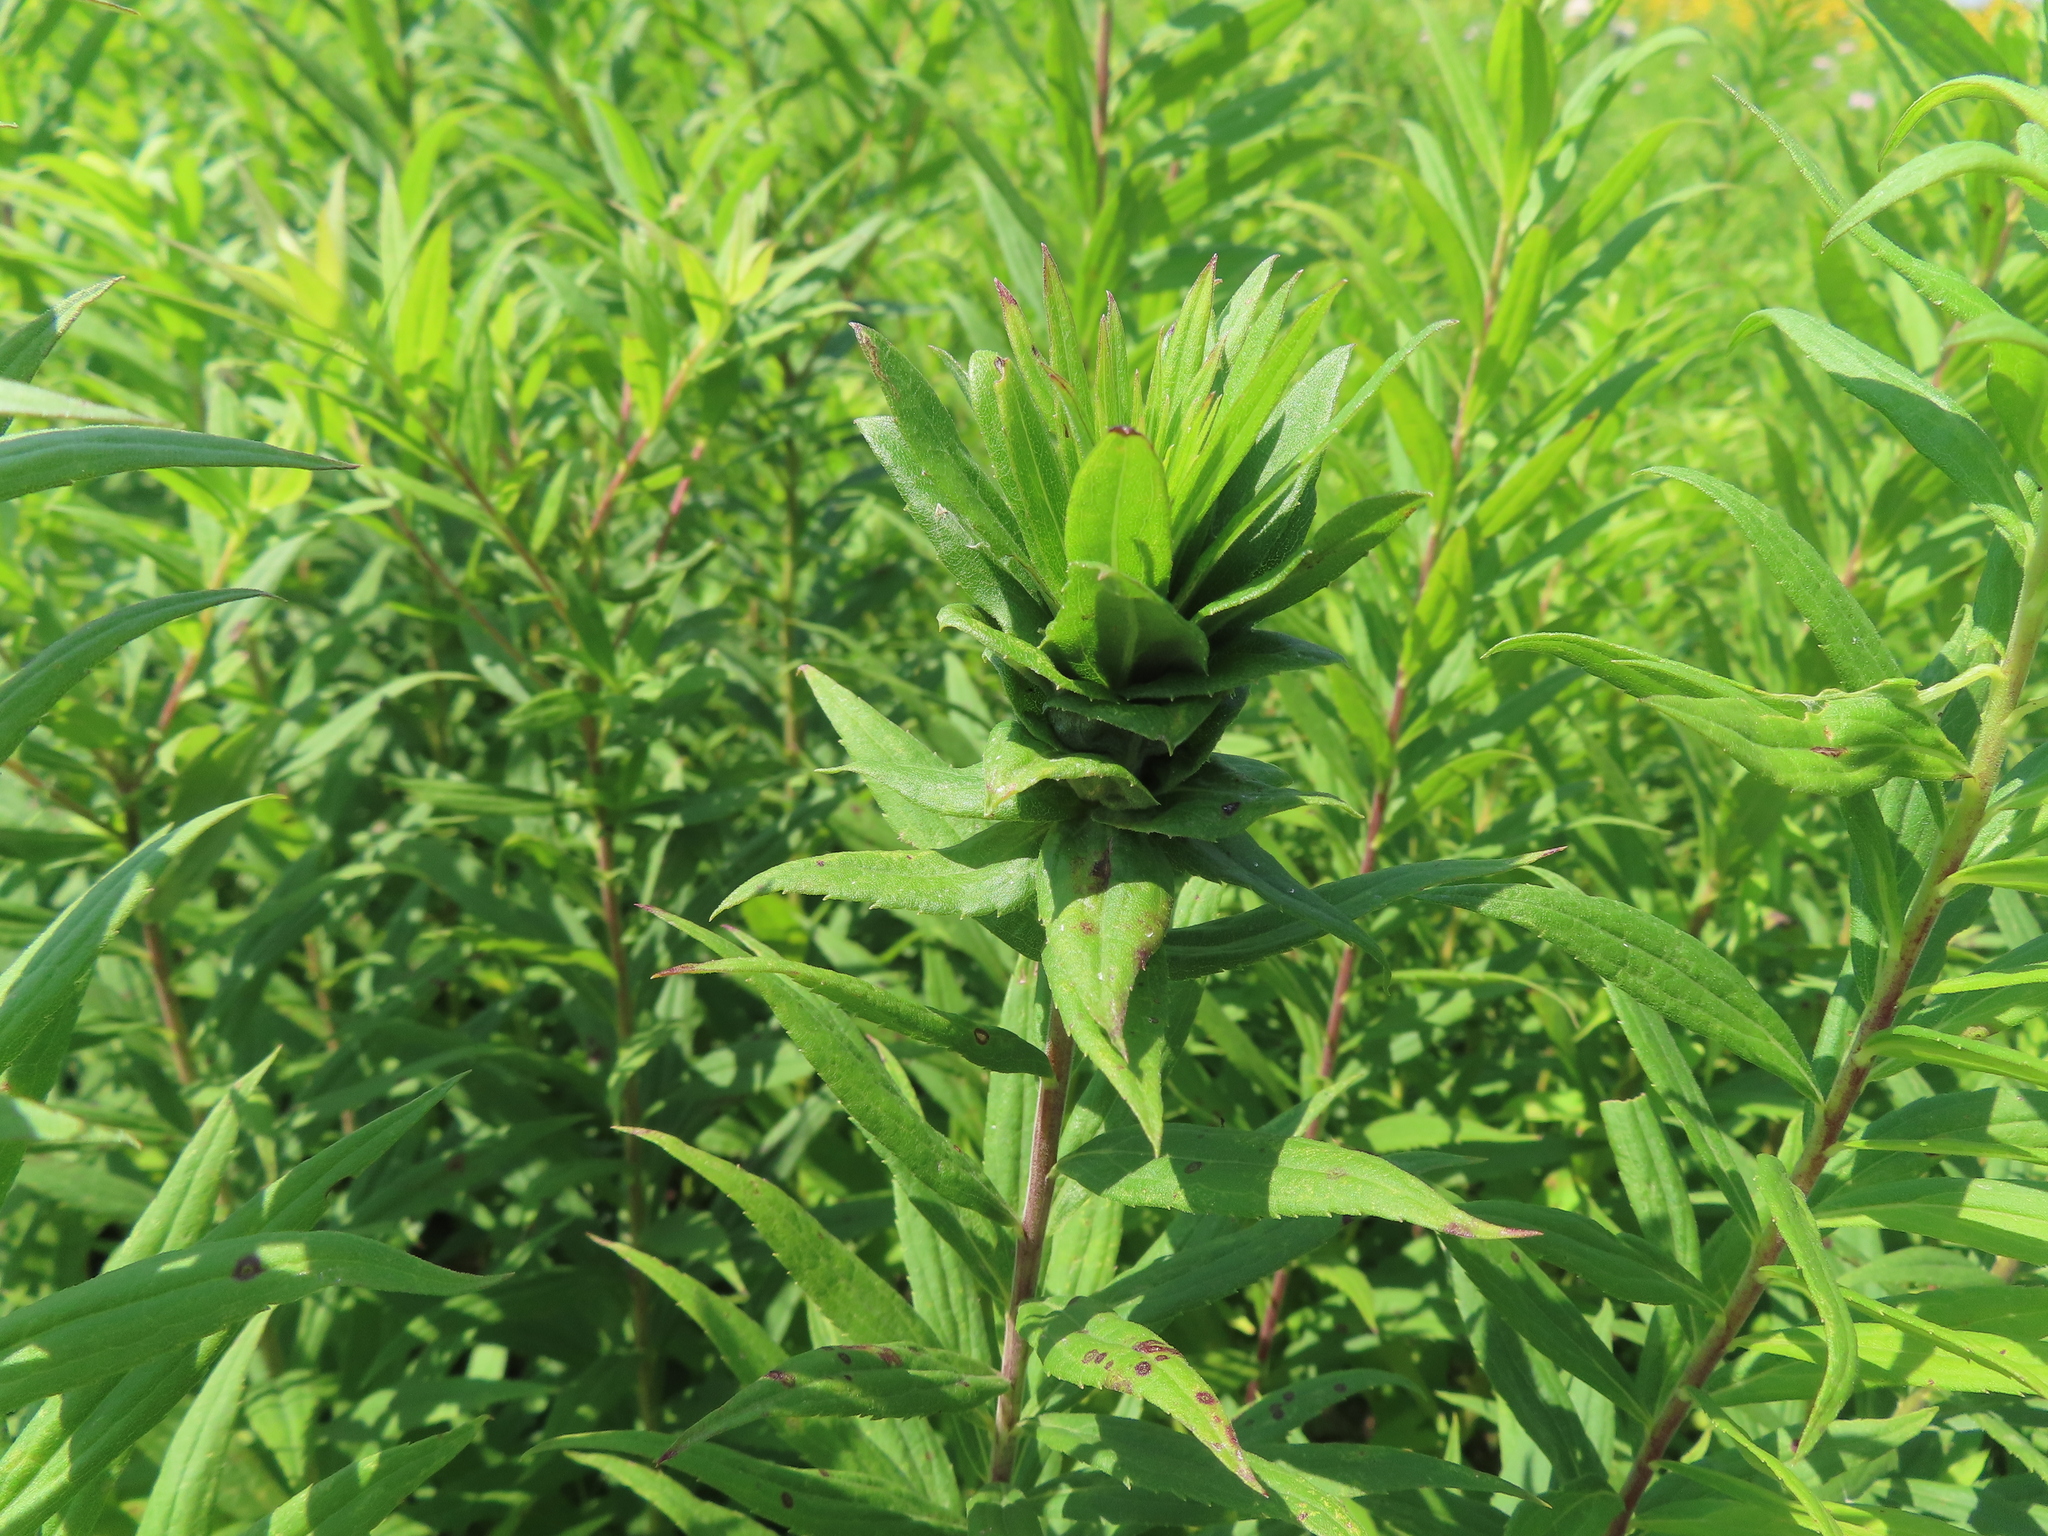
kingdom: Animalia
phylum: Arthropoda
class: Insecta
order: Diptera
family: Cecidomyiidae
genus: Rhopalomyia
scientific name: Rhopalomyia solidaginis
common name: Goldenrod bunch gall midge
